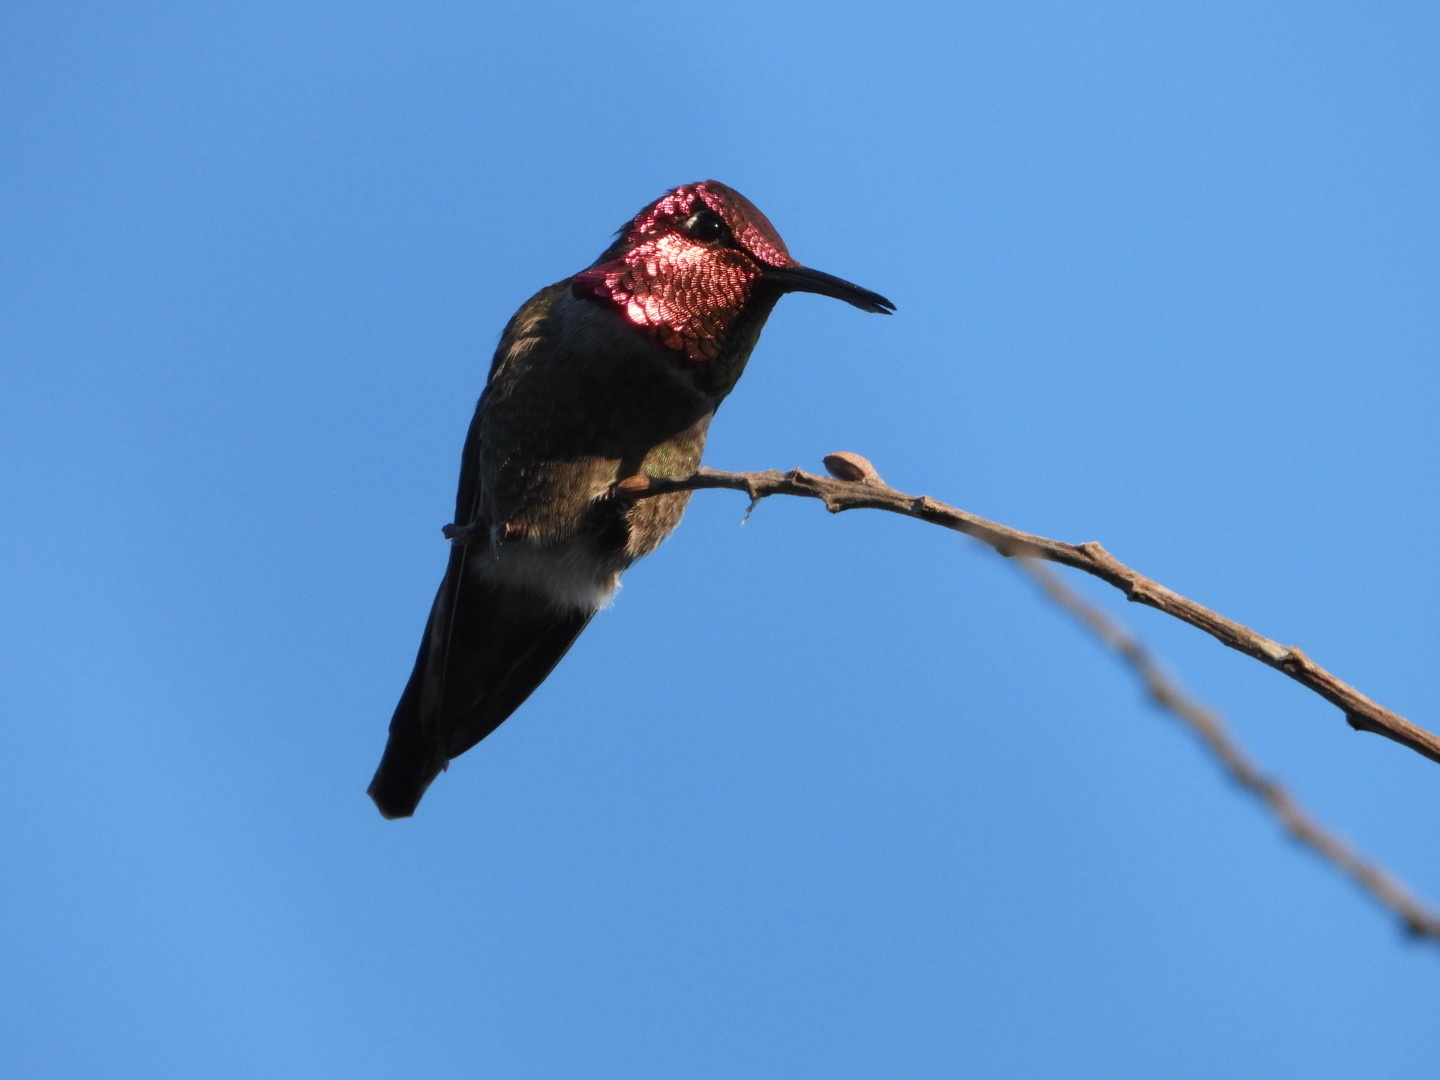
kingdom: Animalia
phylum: Chordata
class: Aves
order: Apodiformes
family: Trochilidae
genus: Calypte
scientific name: Calypte anna
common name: Anna's hummingbird
